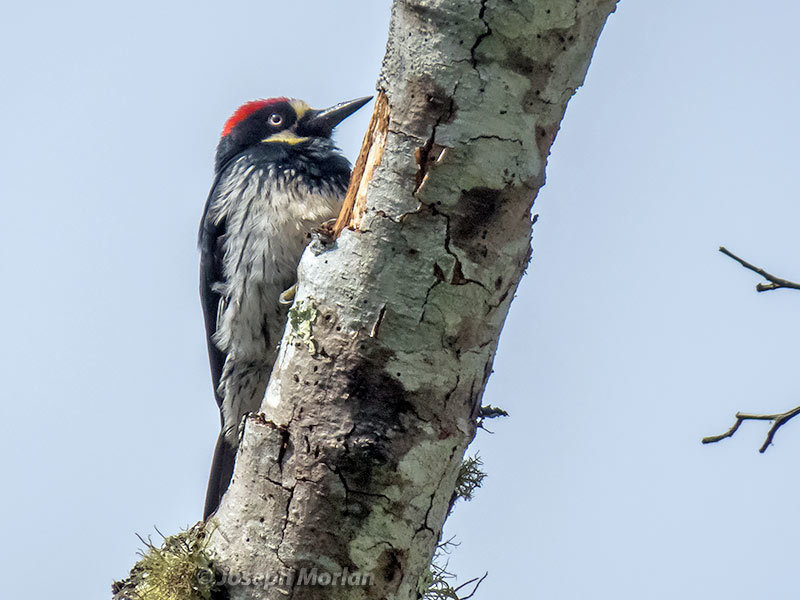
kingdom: Animalia
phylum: Chordata
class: Aves
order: Piciformes
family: Picidae
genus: Melanerpes
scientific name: Melanerpes formicivorus
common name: Acorn woodpecker
